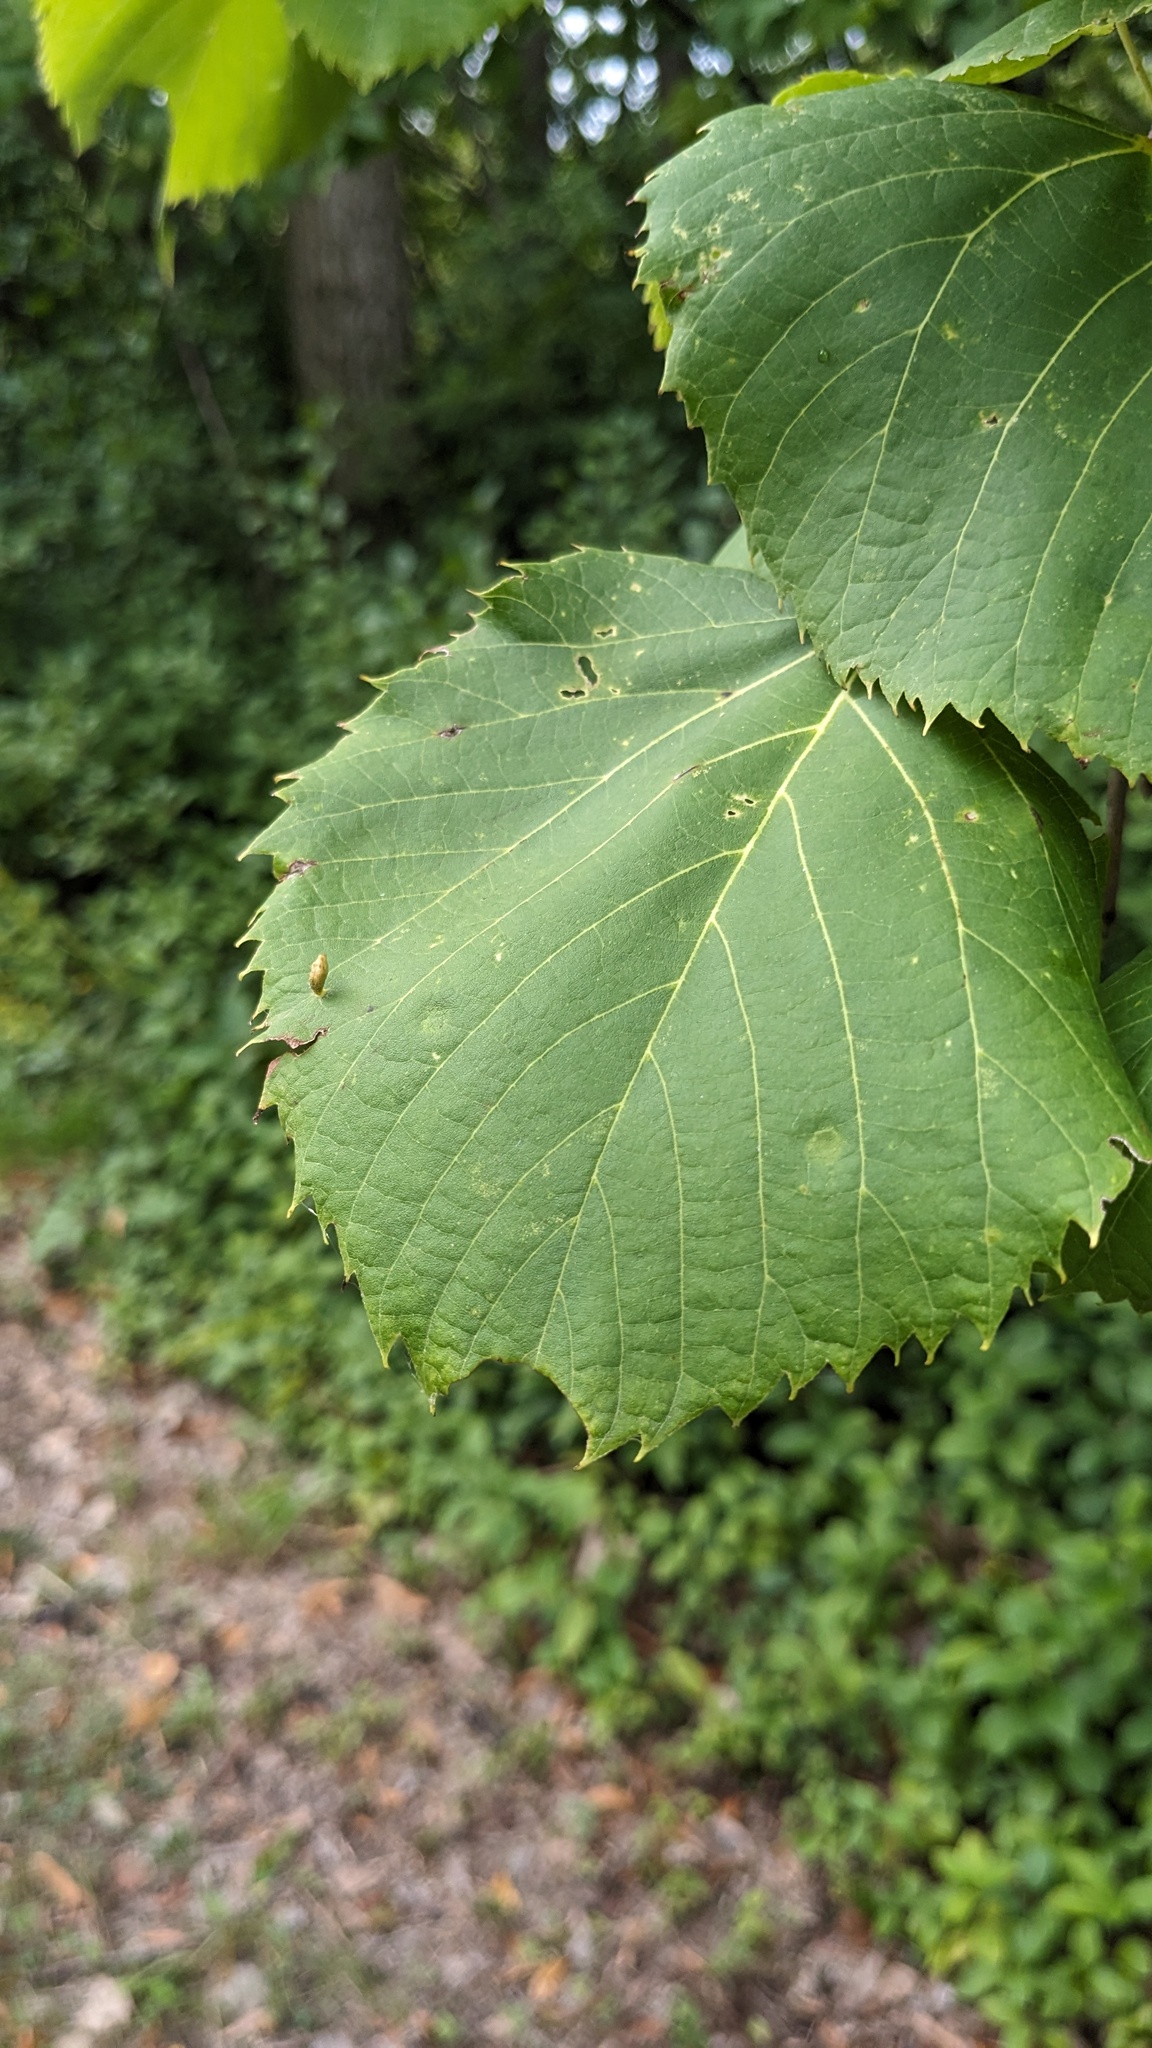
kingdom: Animalia
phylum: Arthropoda
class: Arachnida
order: Trombidiformes
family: Eriophyidae
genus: Eriophyes
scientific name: Eriophyes tiliae
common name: Red nail gall mite
